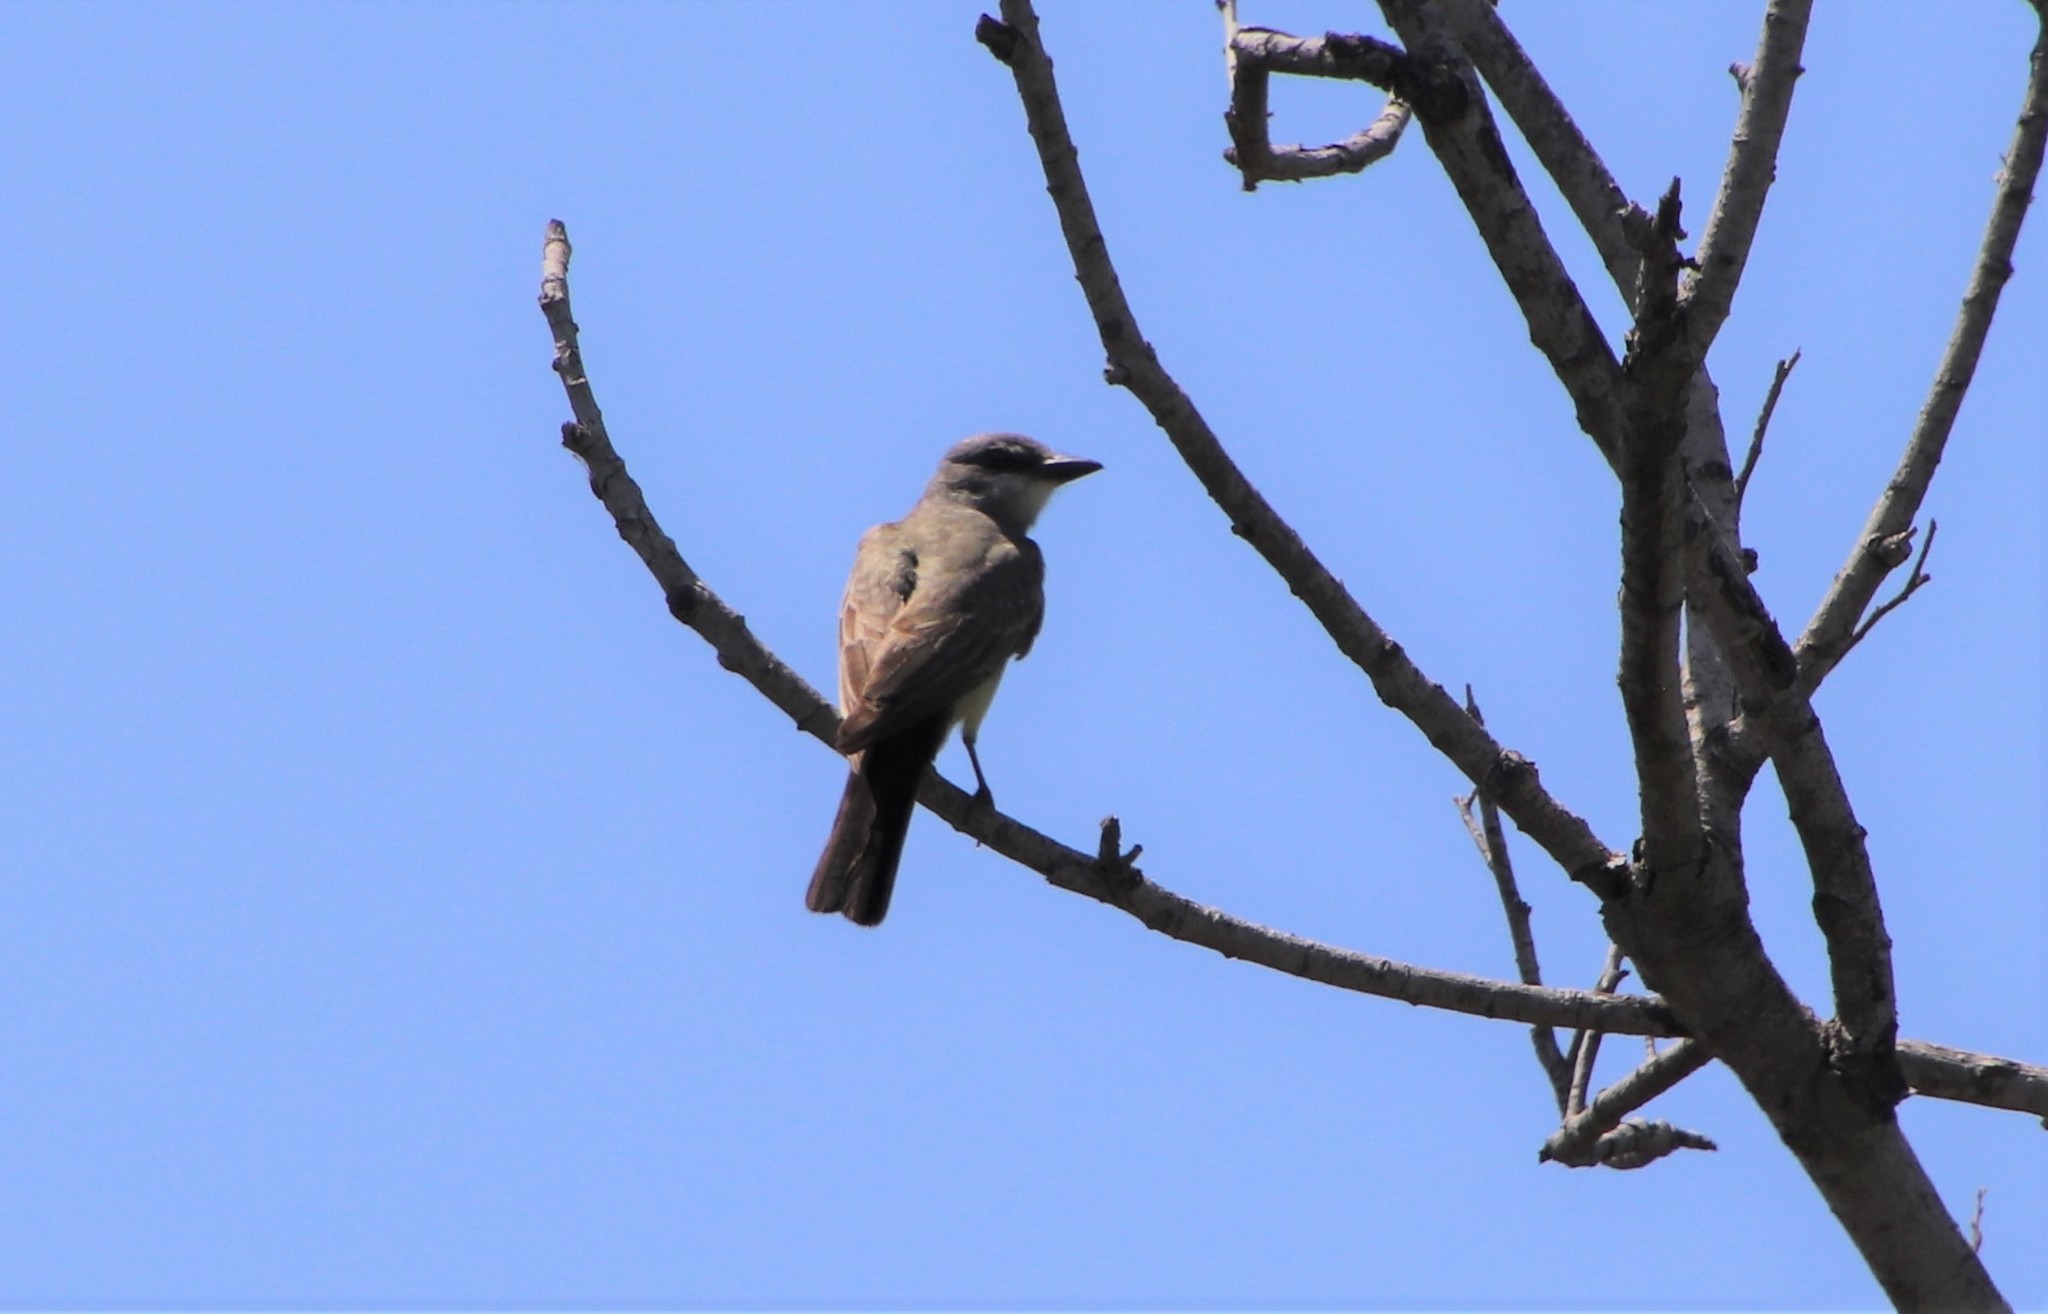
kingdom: Animalia
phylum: Chordata
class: Aves
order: Passeriformes
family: Tyrannidae
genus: Tyrannus
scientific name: Tyrannus vociferans
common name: Cassin's kingbird
